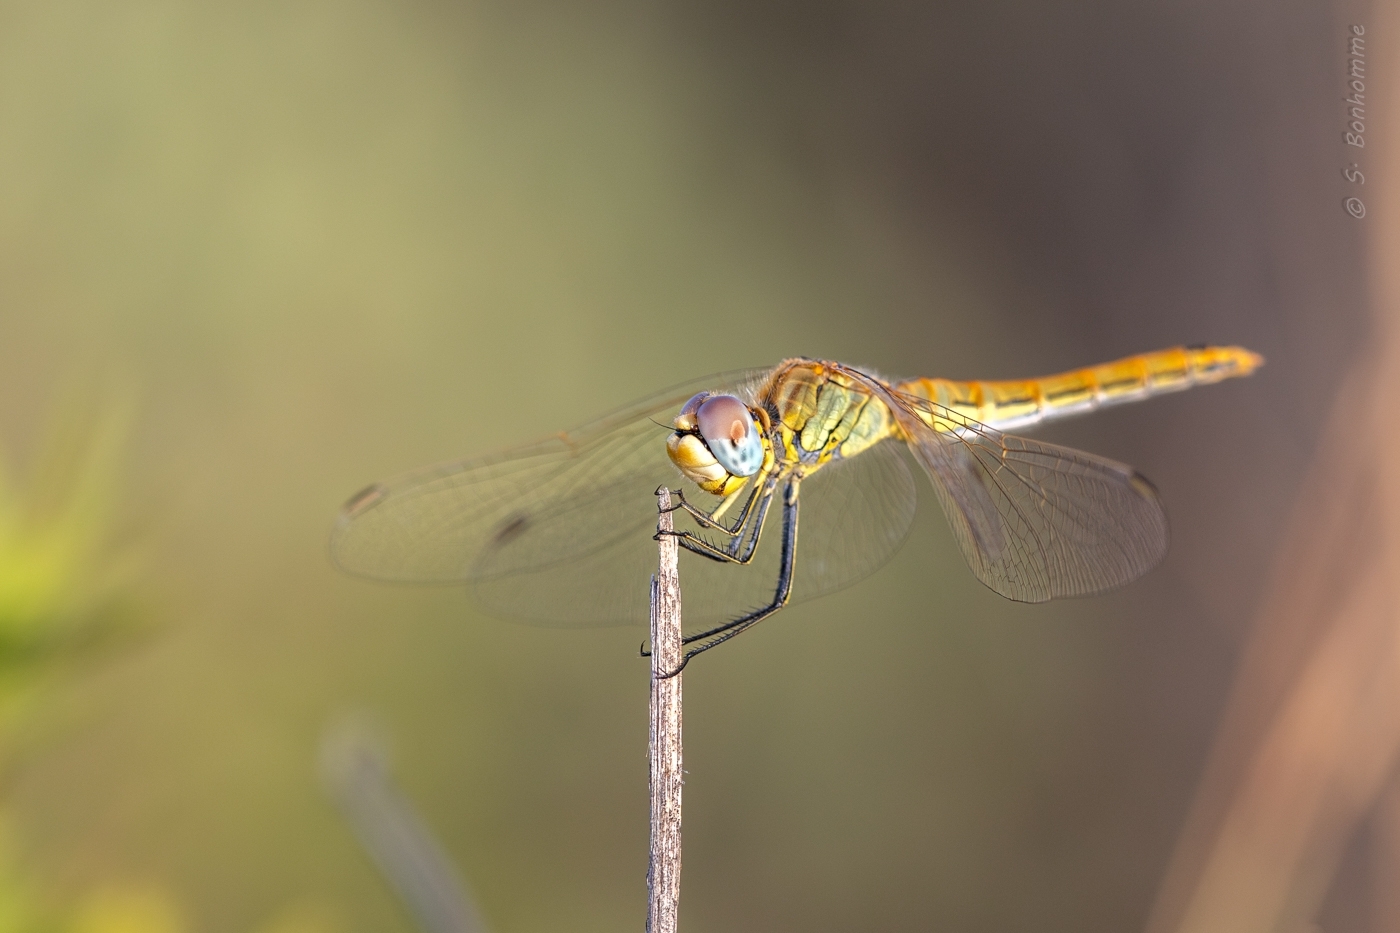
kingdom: Animalia
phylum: Arthropoda
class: Insecta
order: Odonata
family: Libellulidae
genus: Sympetrum
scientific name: Sympetrum fonscolombii
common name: Red-veined darter
